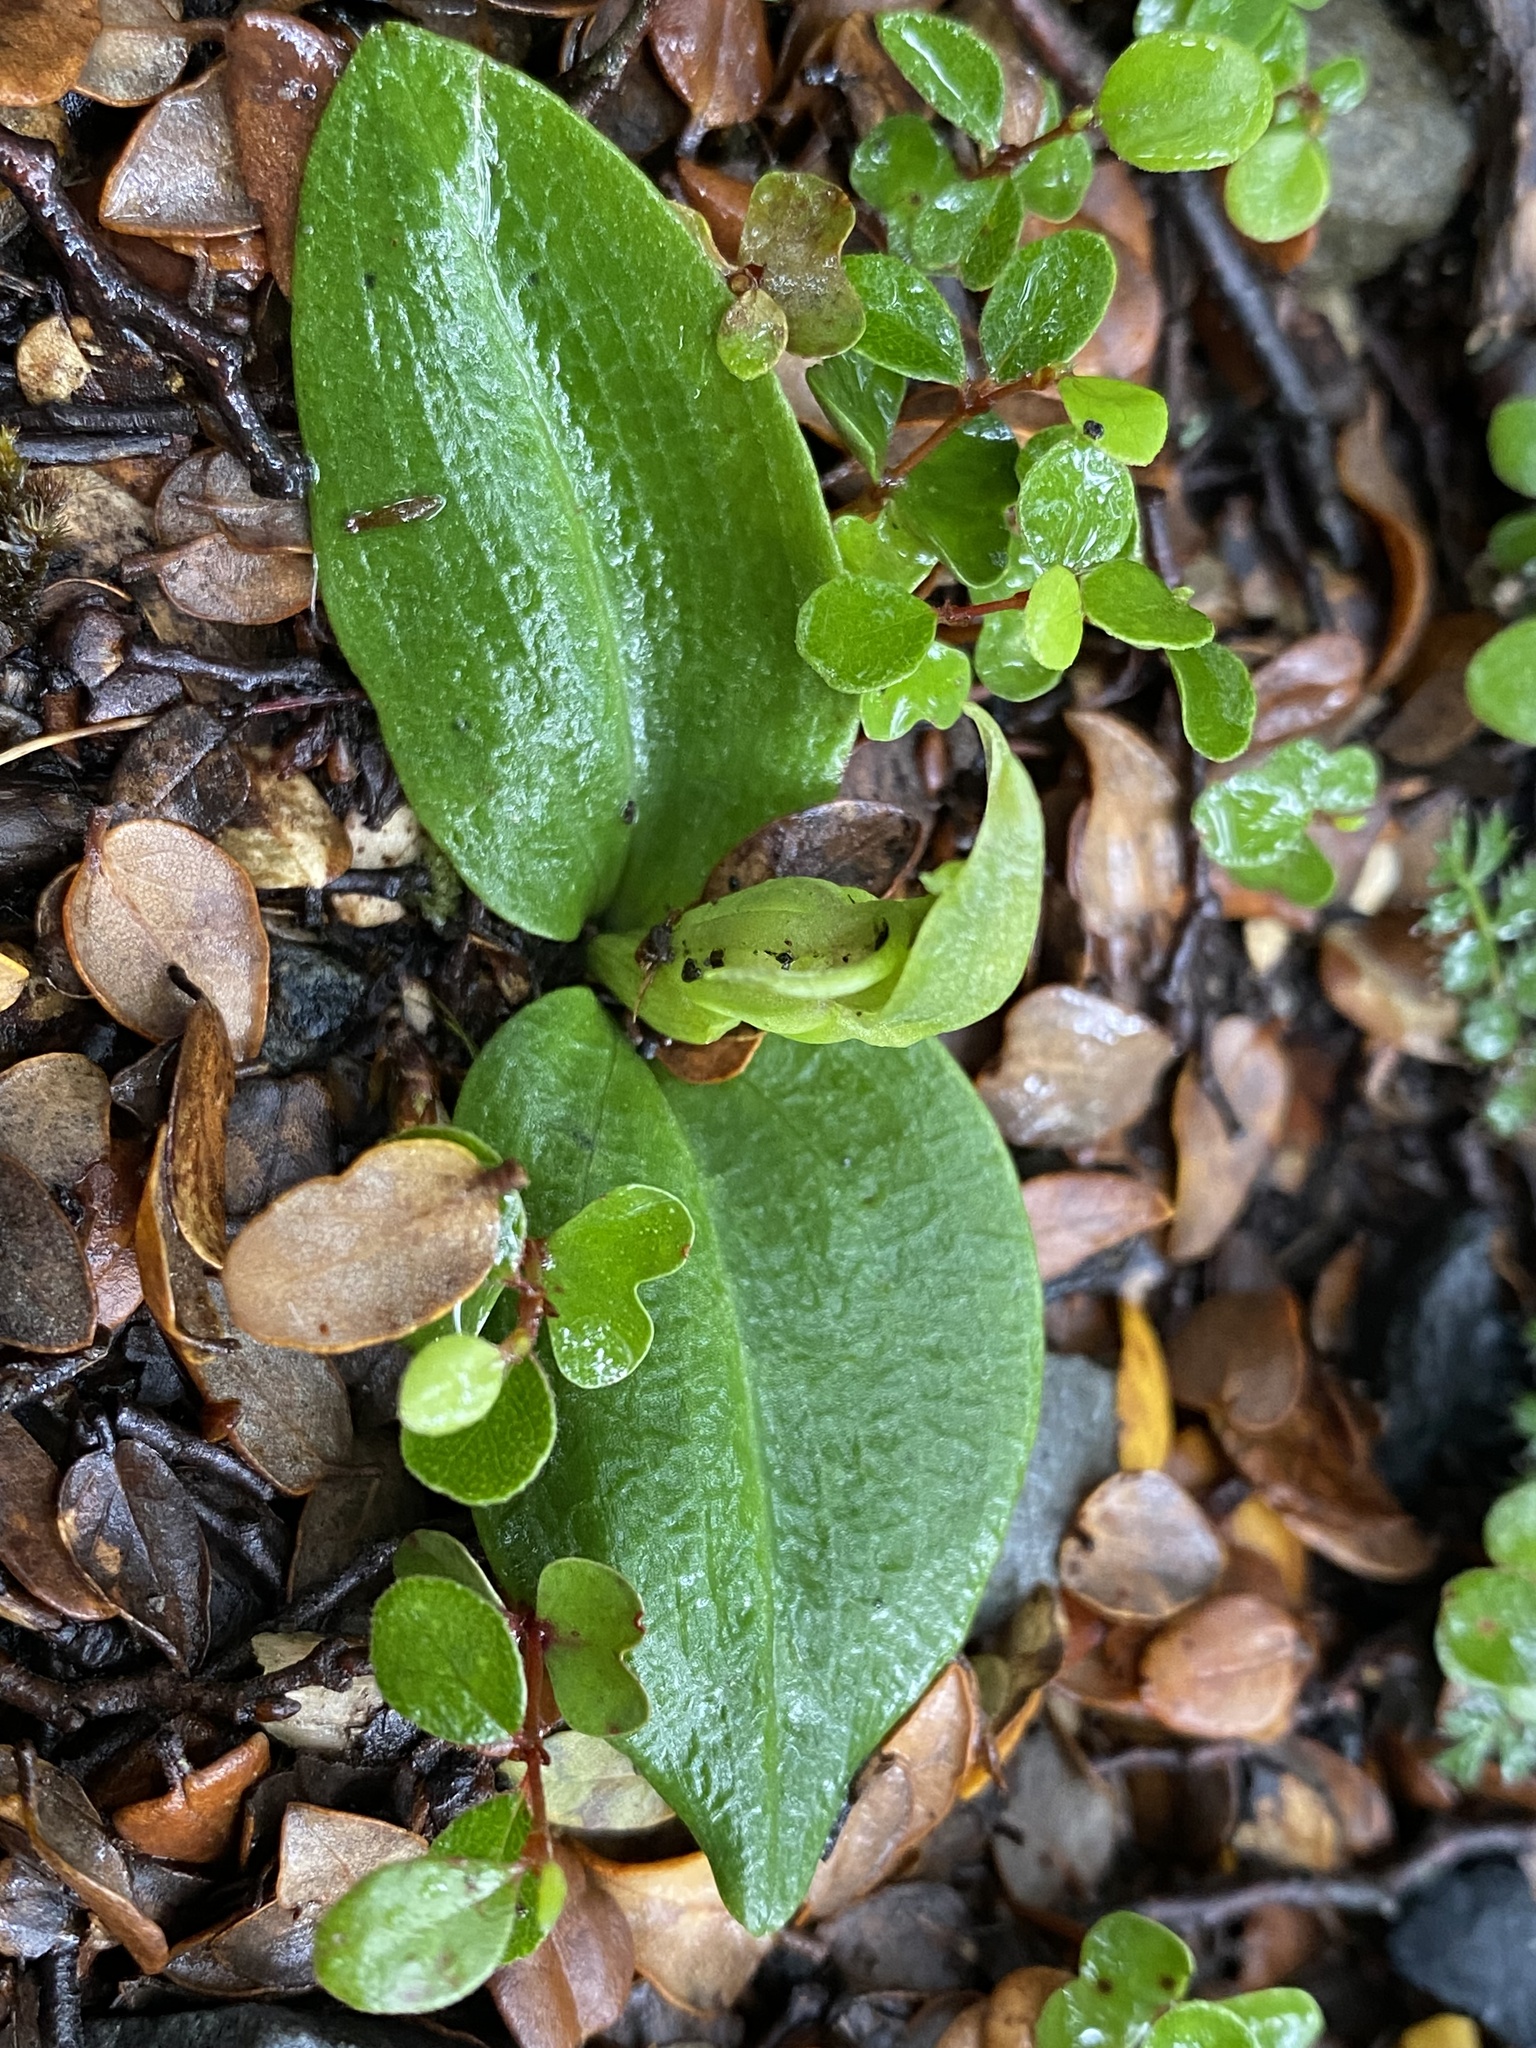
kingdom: Plantae
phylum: Tracheophyta
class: Liliopsida
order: Asparagales
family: Orchidaceae
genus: Chiloglottis
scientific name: Chiloglottis cornuta
